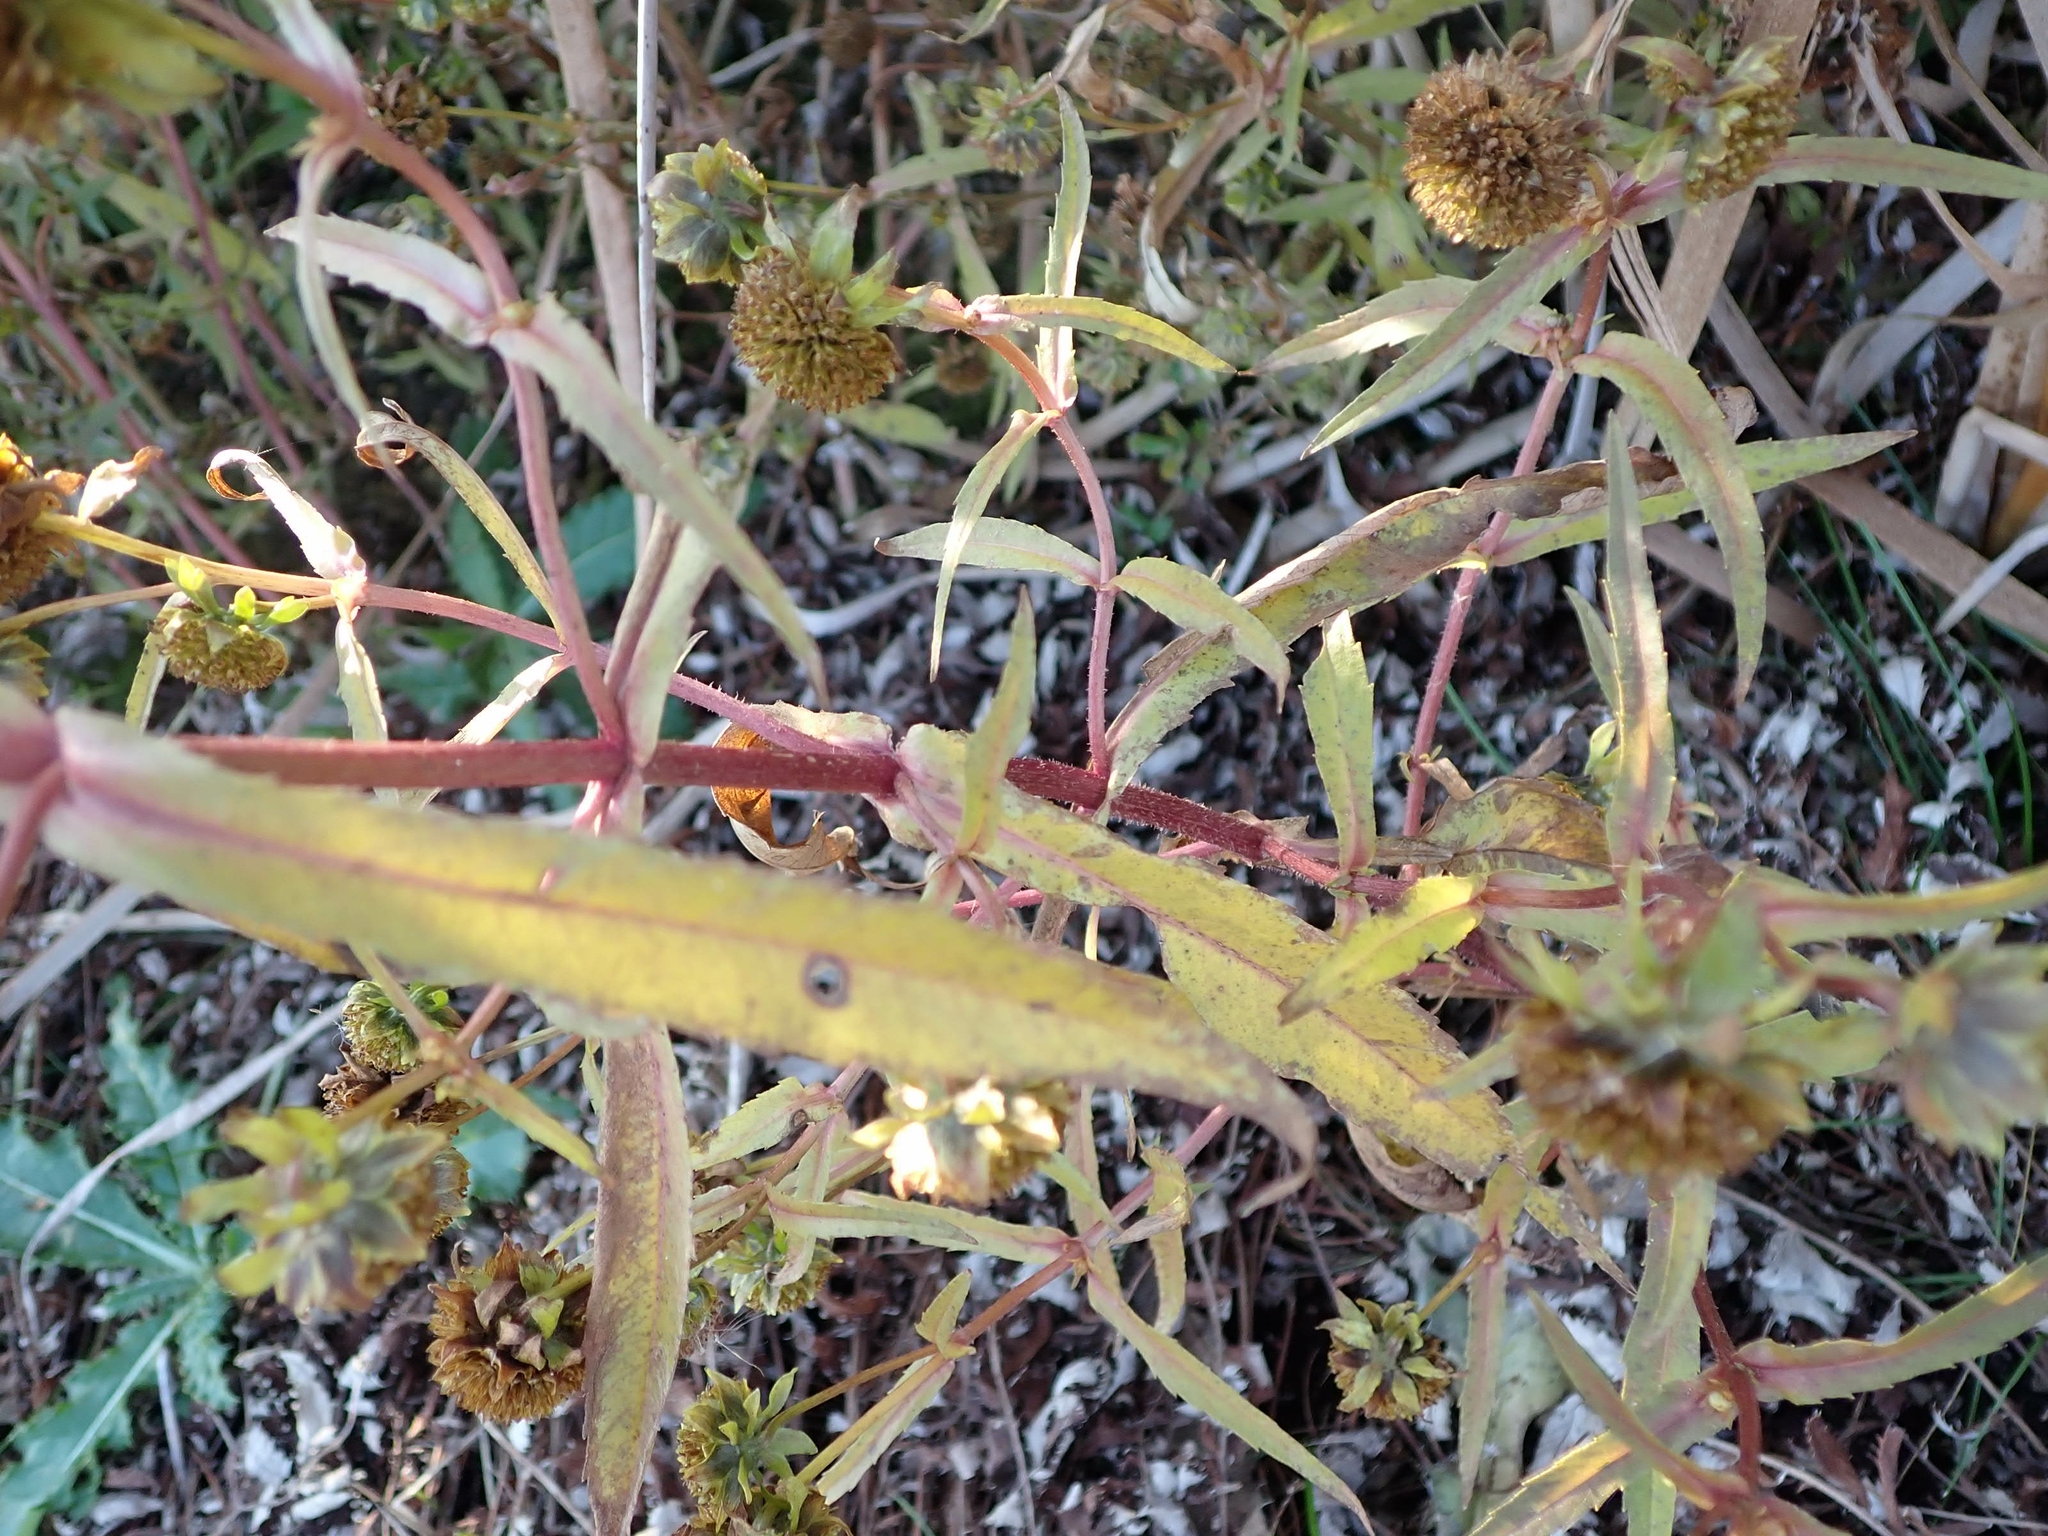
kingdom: Plantae
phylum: Tracheophyta
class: Magnoliopsida
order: Asterales
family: Asteraceae
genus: Bidens
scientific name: Bidens cernua
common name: Nodding bur-marigold
